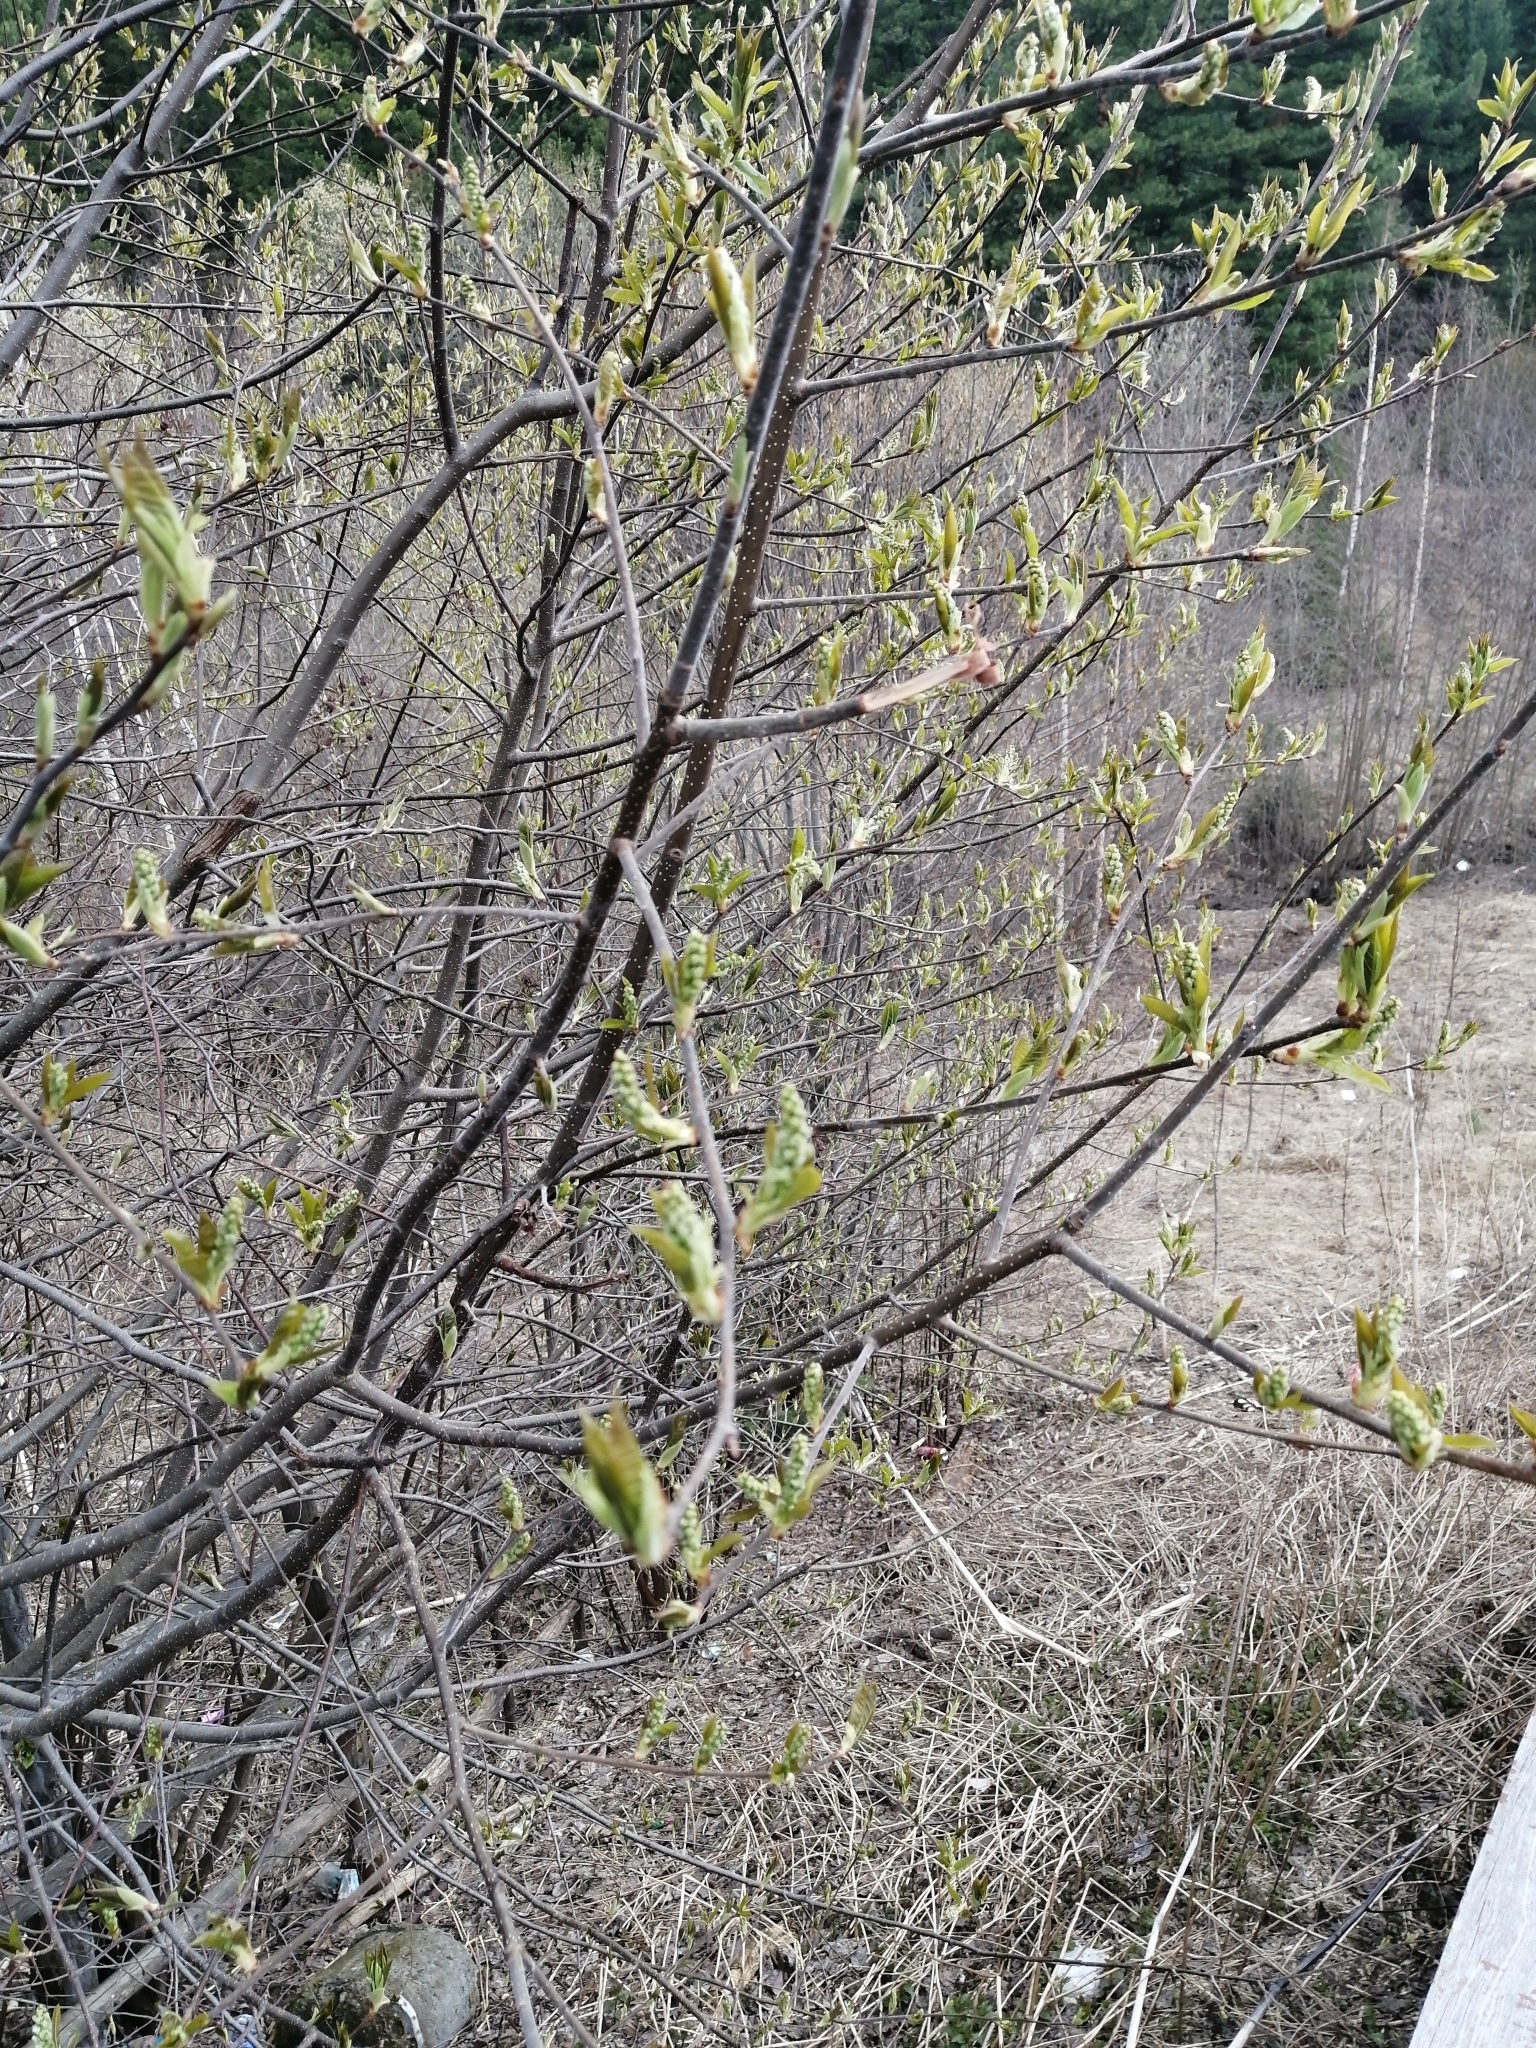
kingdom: Plantae
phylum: Tracheophyta
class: Magnoliopsida
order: Rosales
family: Rosaceae
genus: Prunus
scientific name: Prunus padus
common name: Bird cherry
